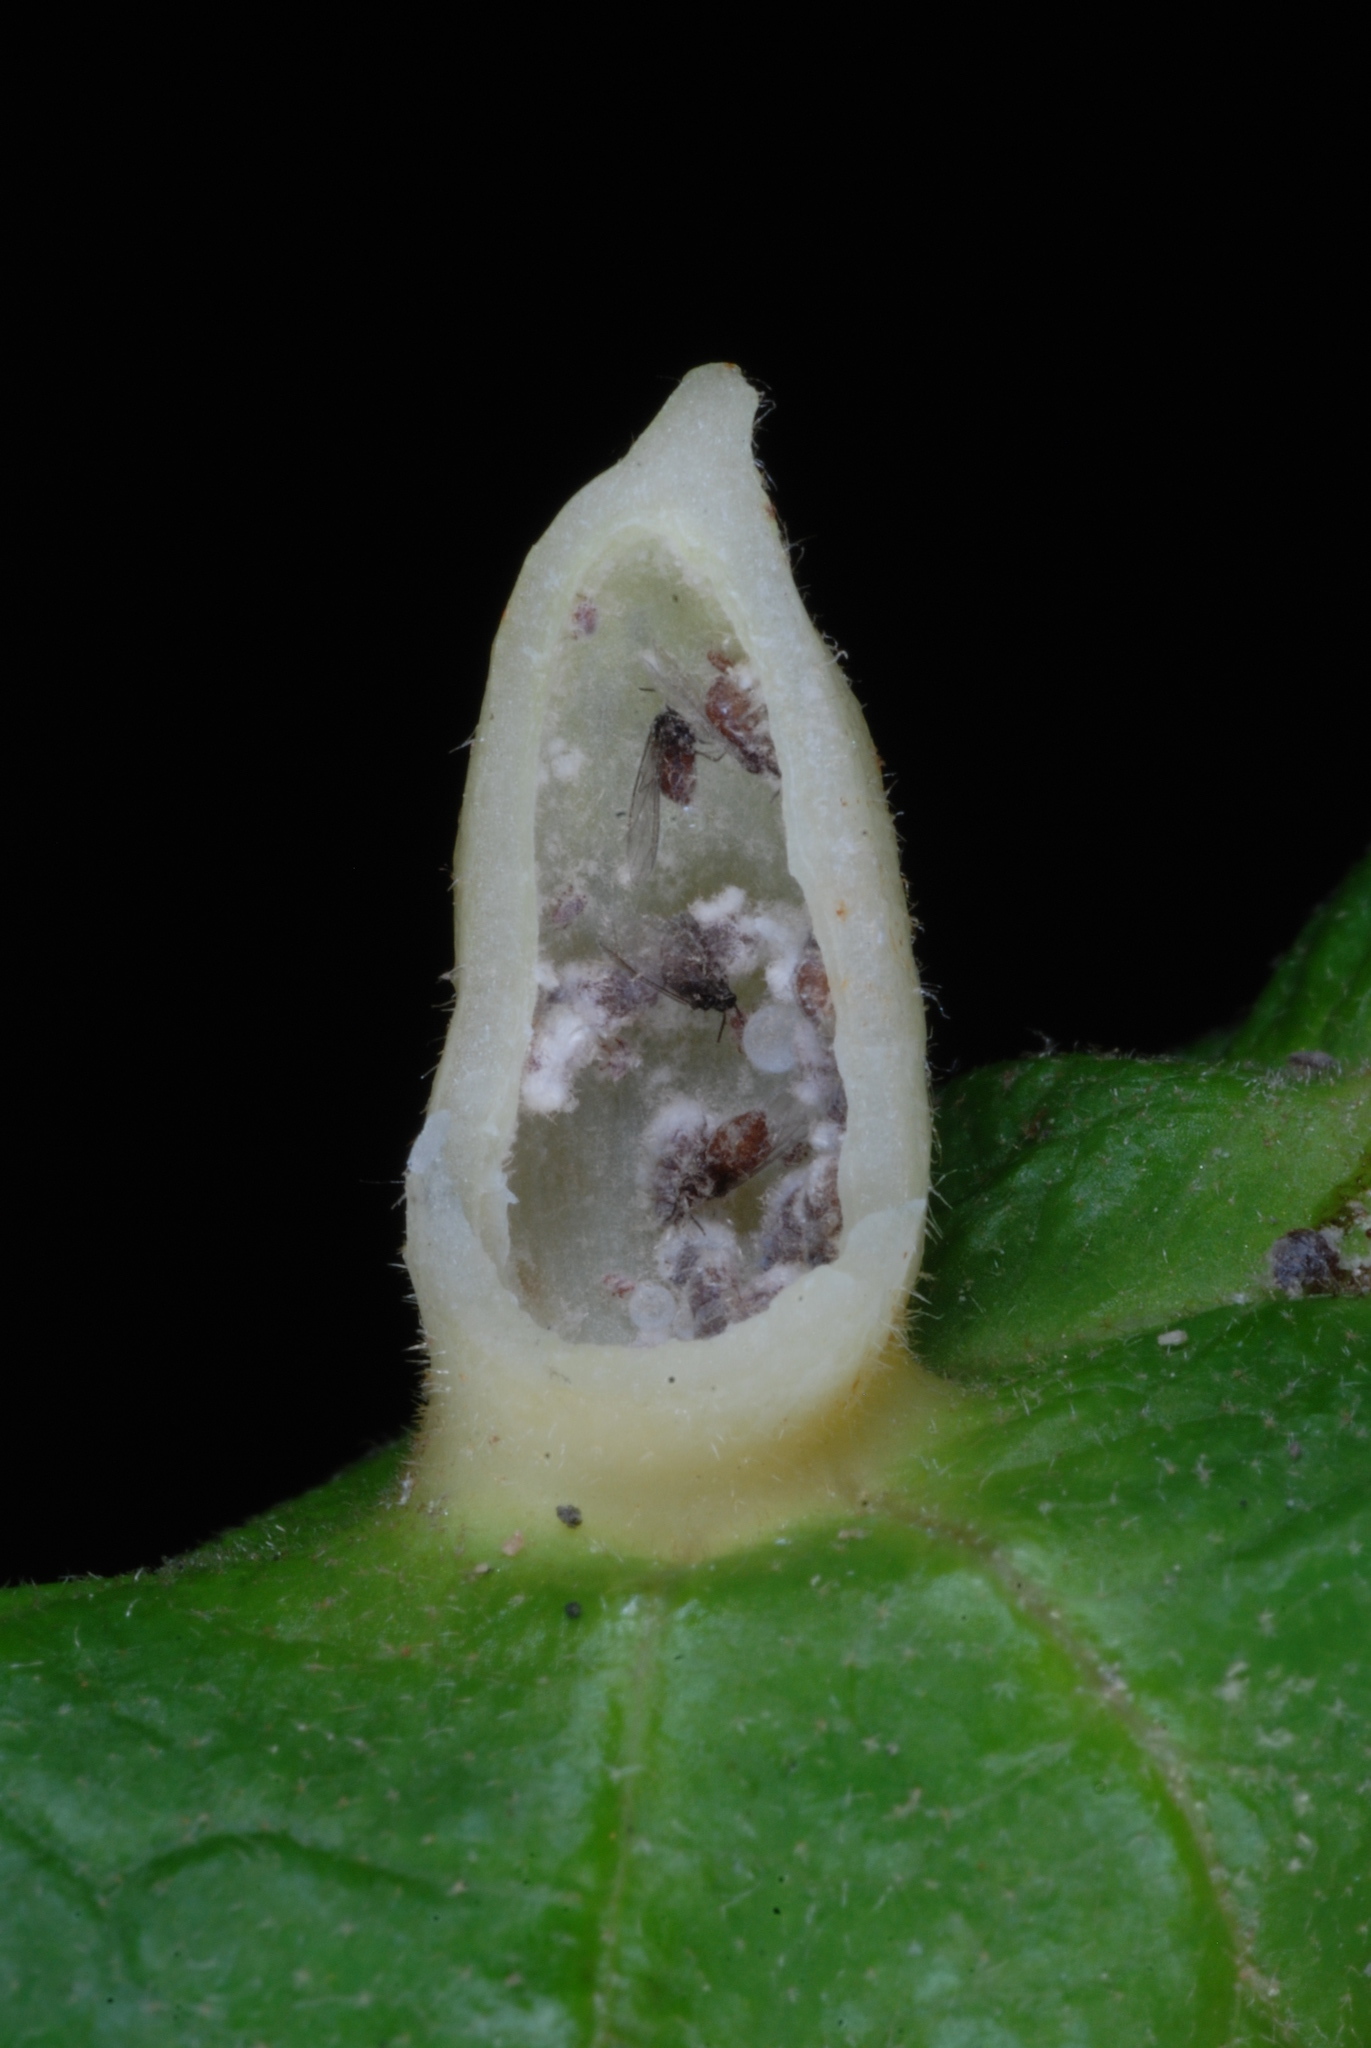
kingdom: Animalia
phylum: Arthropoda
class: Insecta
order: Hemiptera
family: Aphididae
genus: Hormaphis
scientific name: Hormaphis hamamelidis
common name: Witch-hazel cone gall aphid
